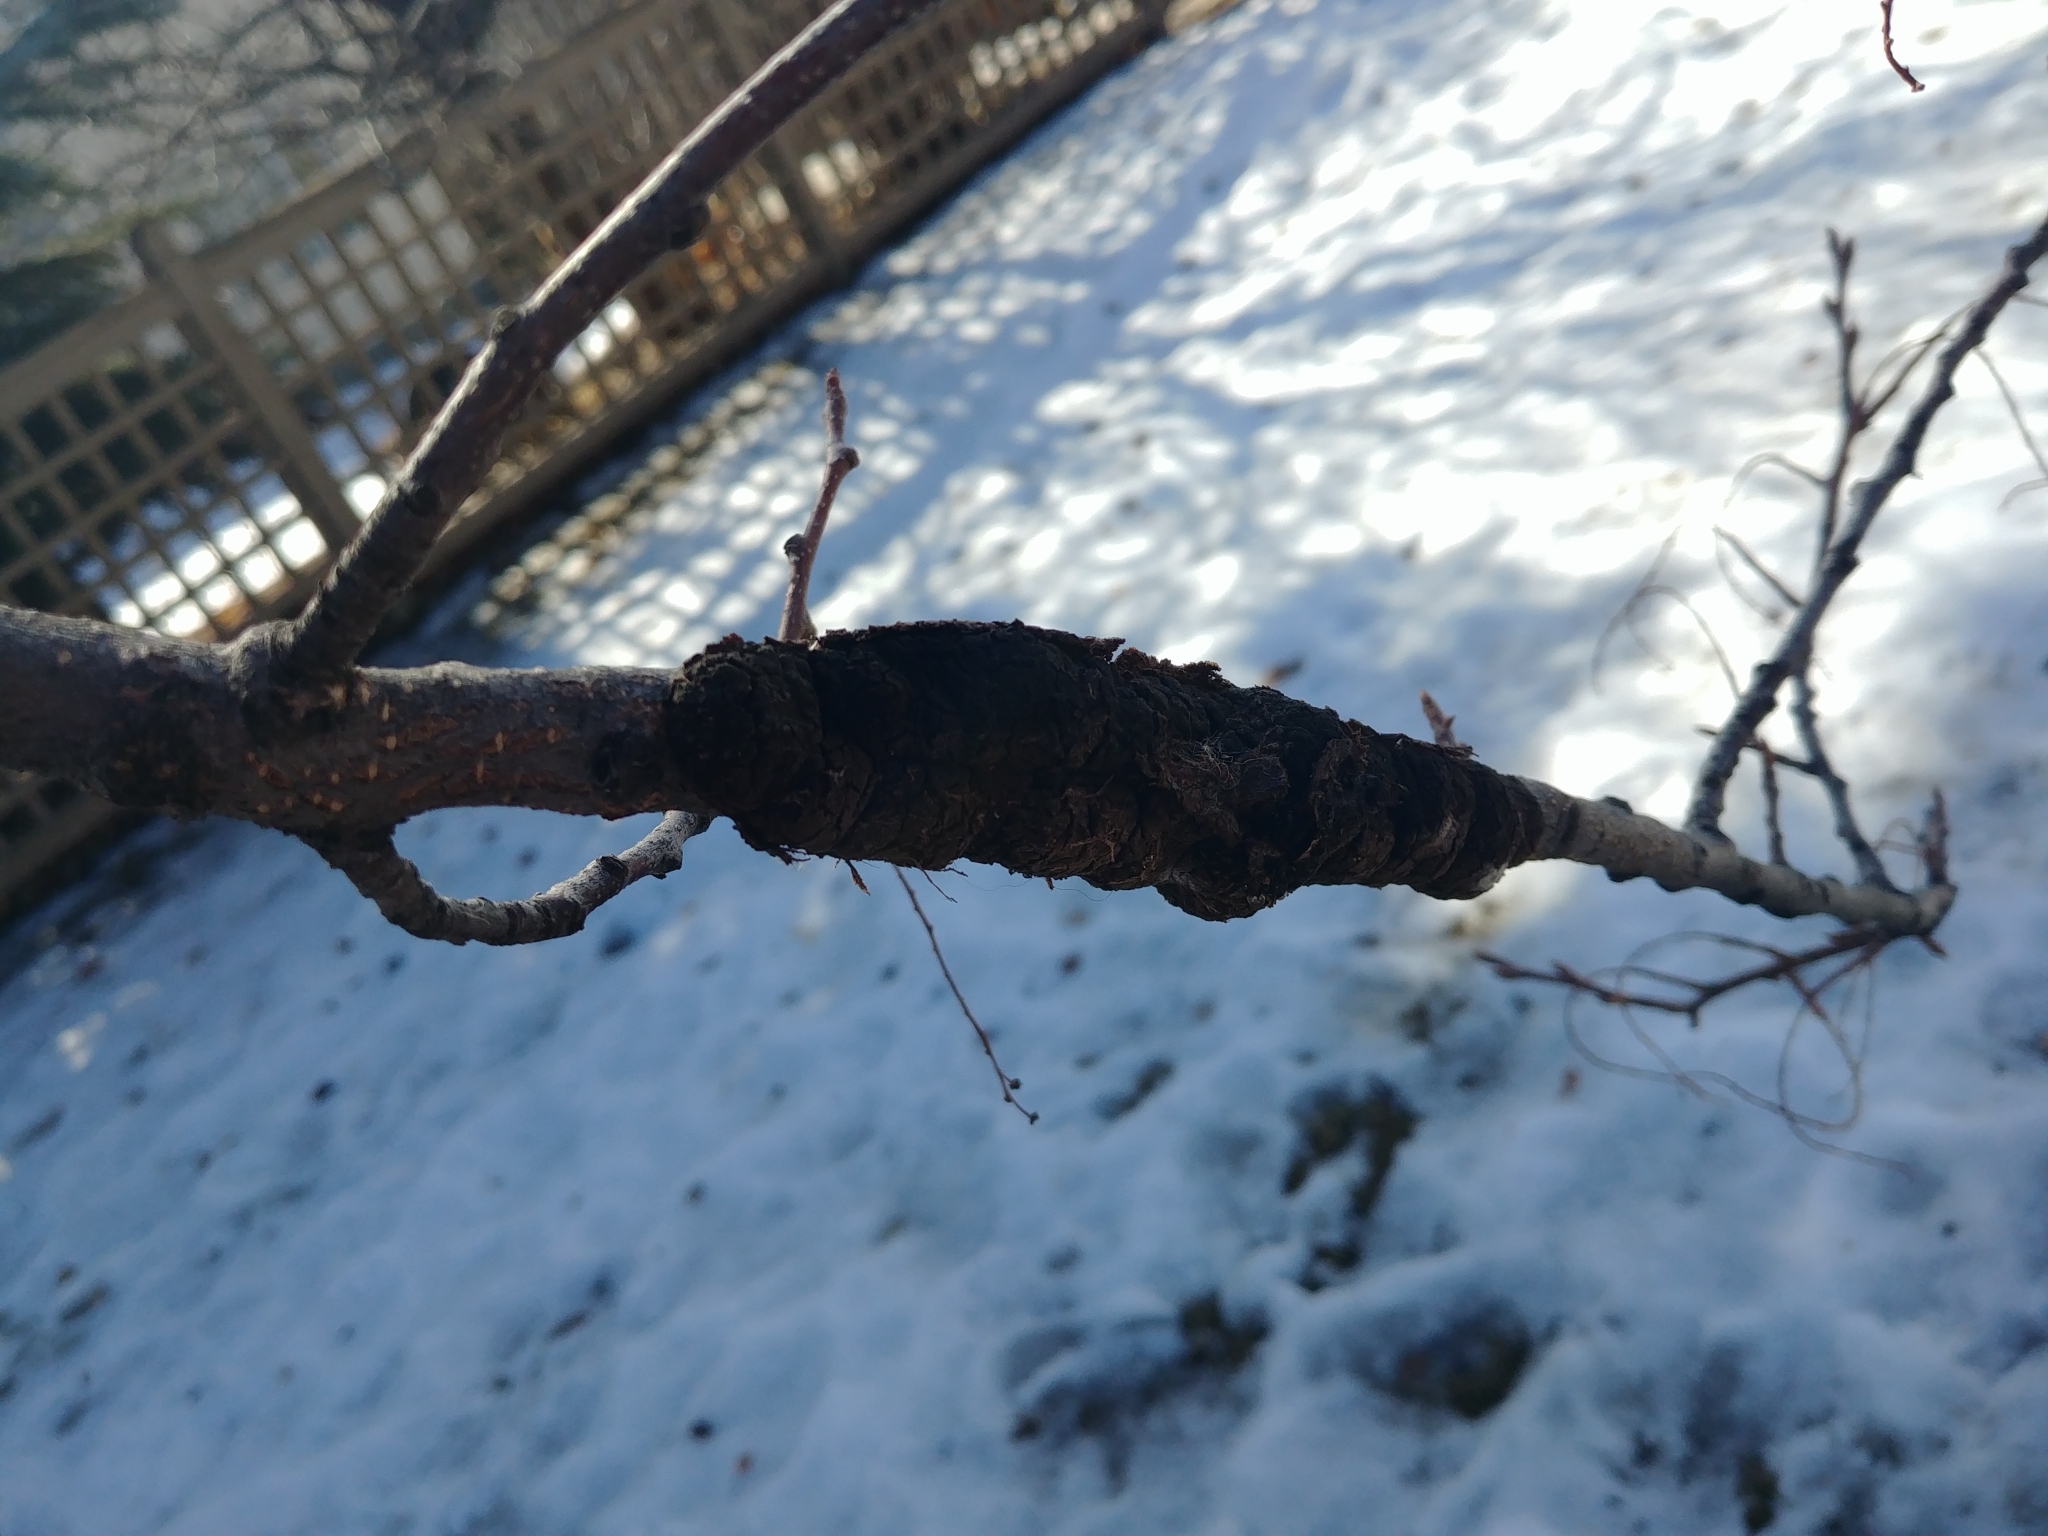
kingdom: Fungi
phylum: Ascomycota
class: Dothideomycetes
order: Venturiales
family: Venturiaceae
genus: Apiosporina
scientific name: Apiosporina morbosa
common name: Black knot
